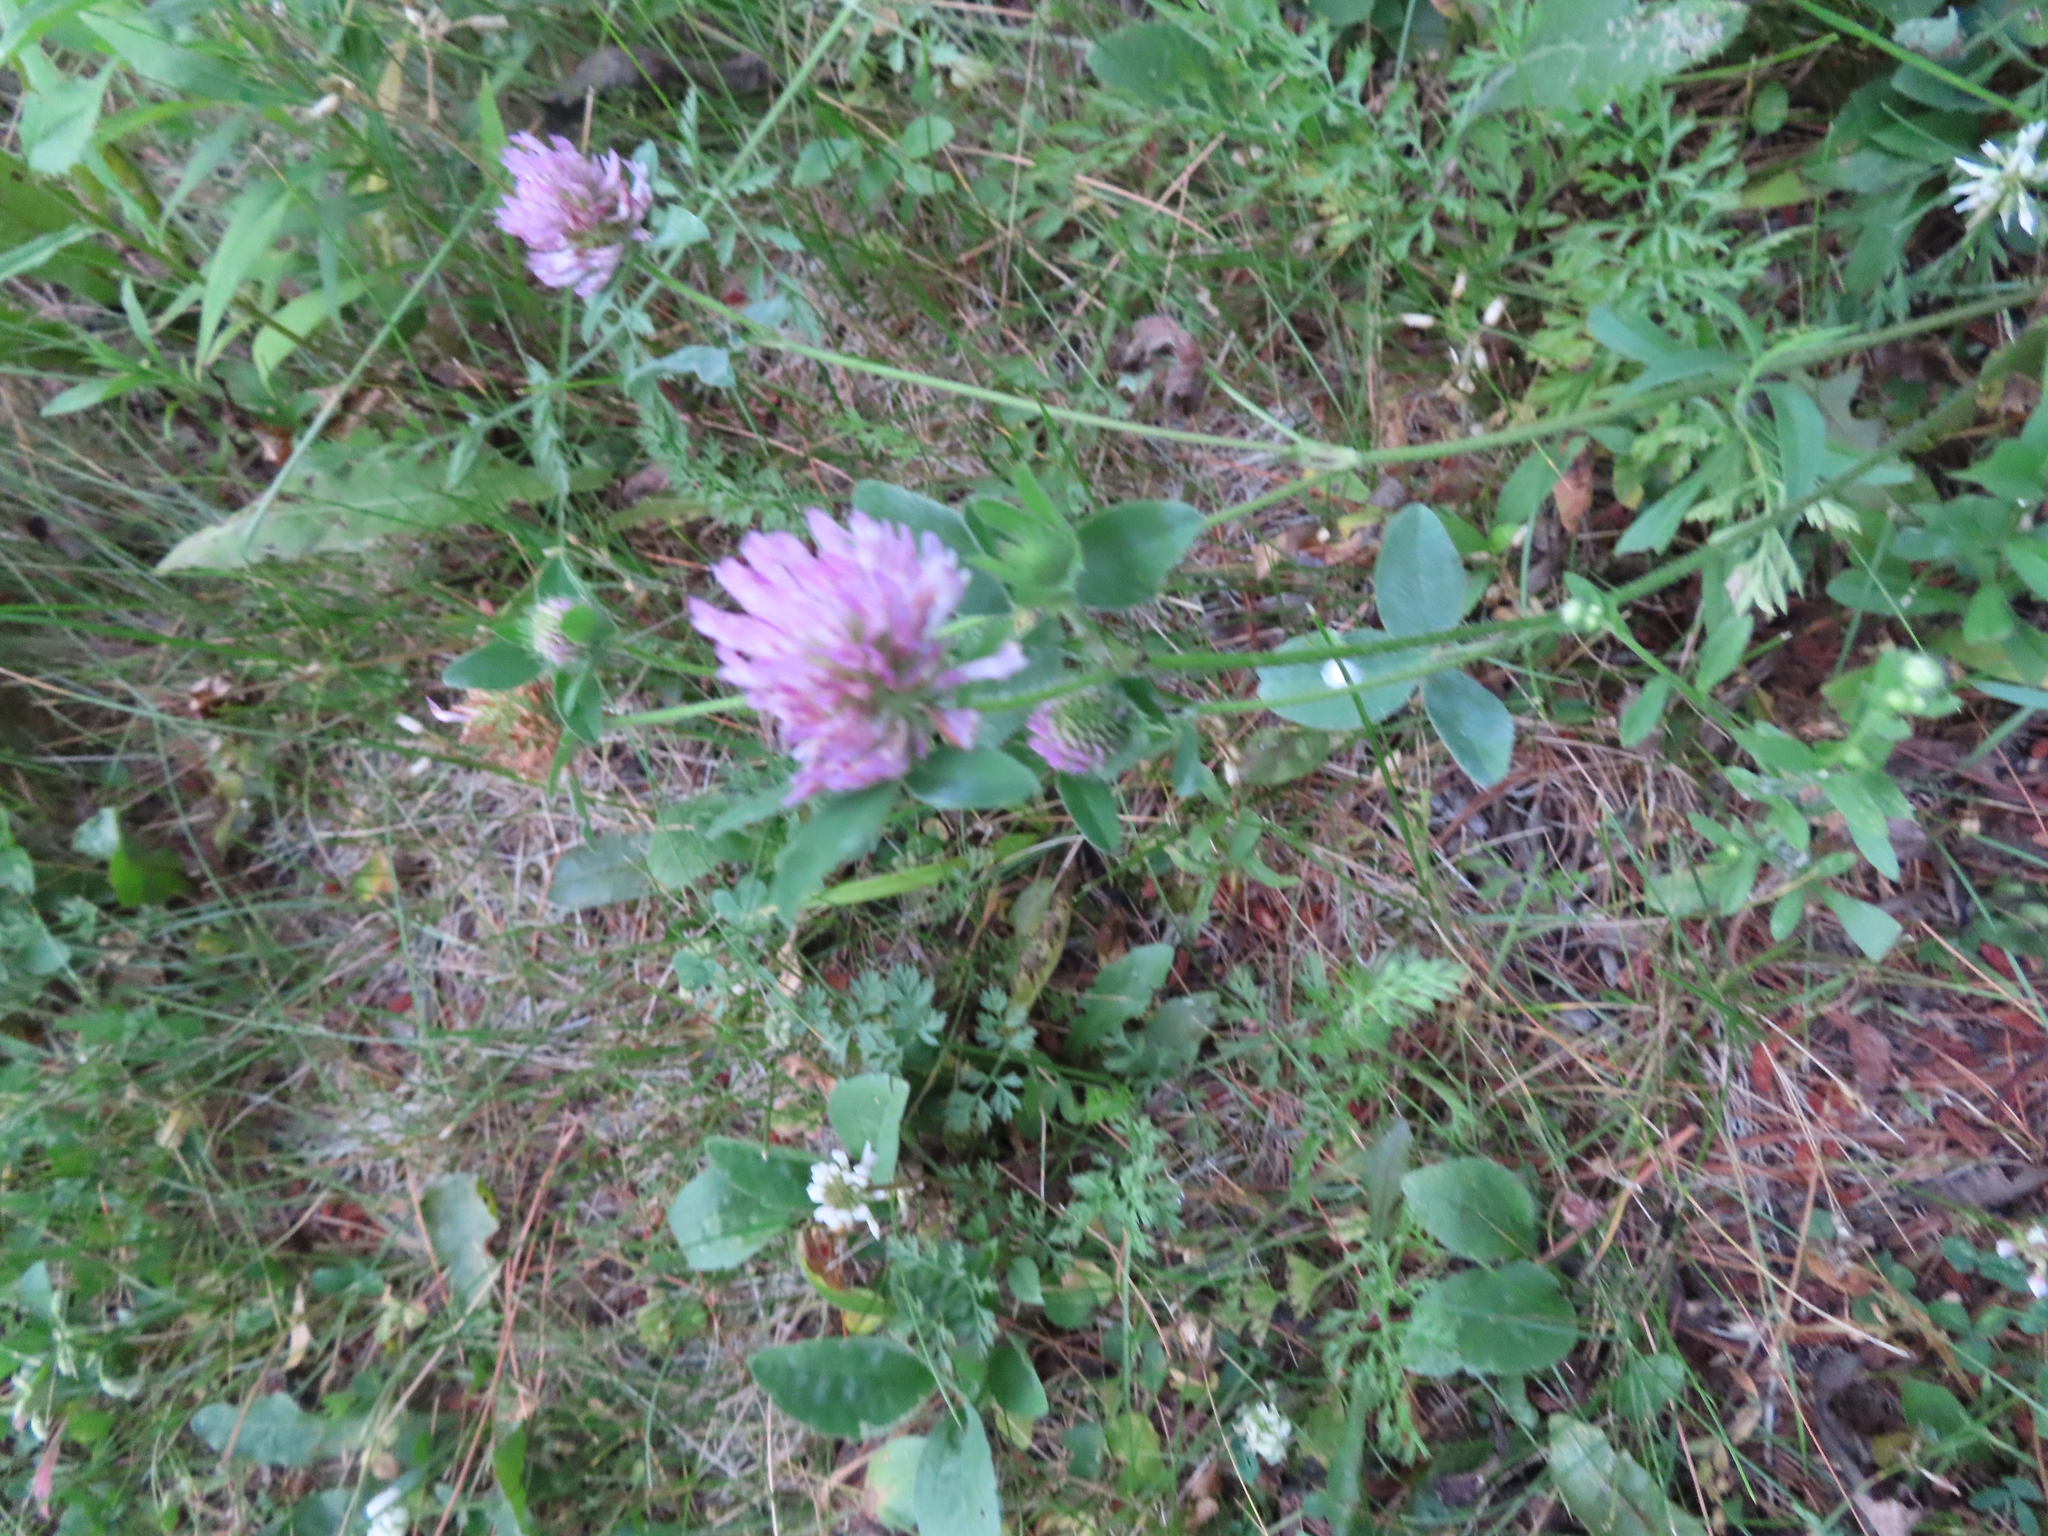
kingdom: Plantae
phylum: Tracheophyta
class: Magnoliopsida
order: Fabales
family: Fabaceae
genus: Trifolium
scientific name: Trifolium pratense
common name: Red clover
